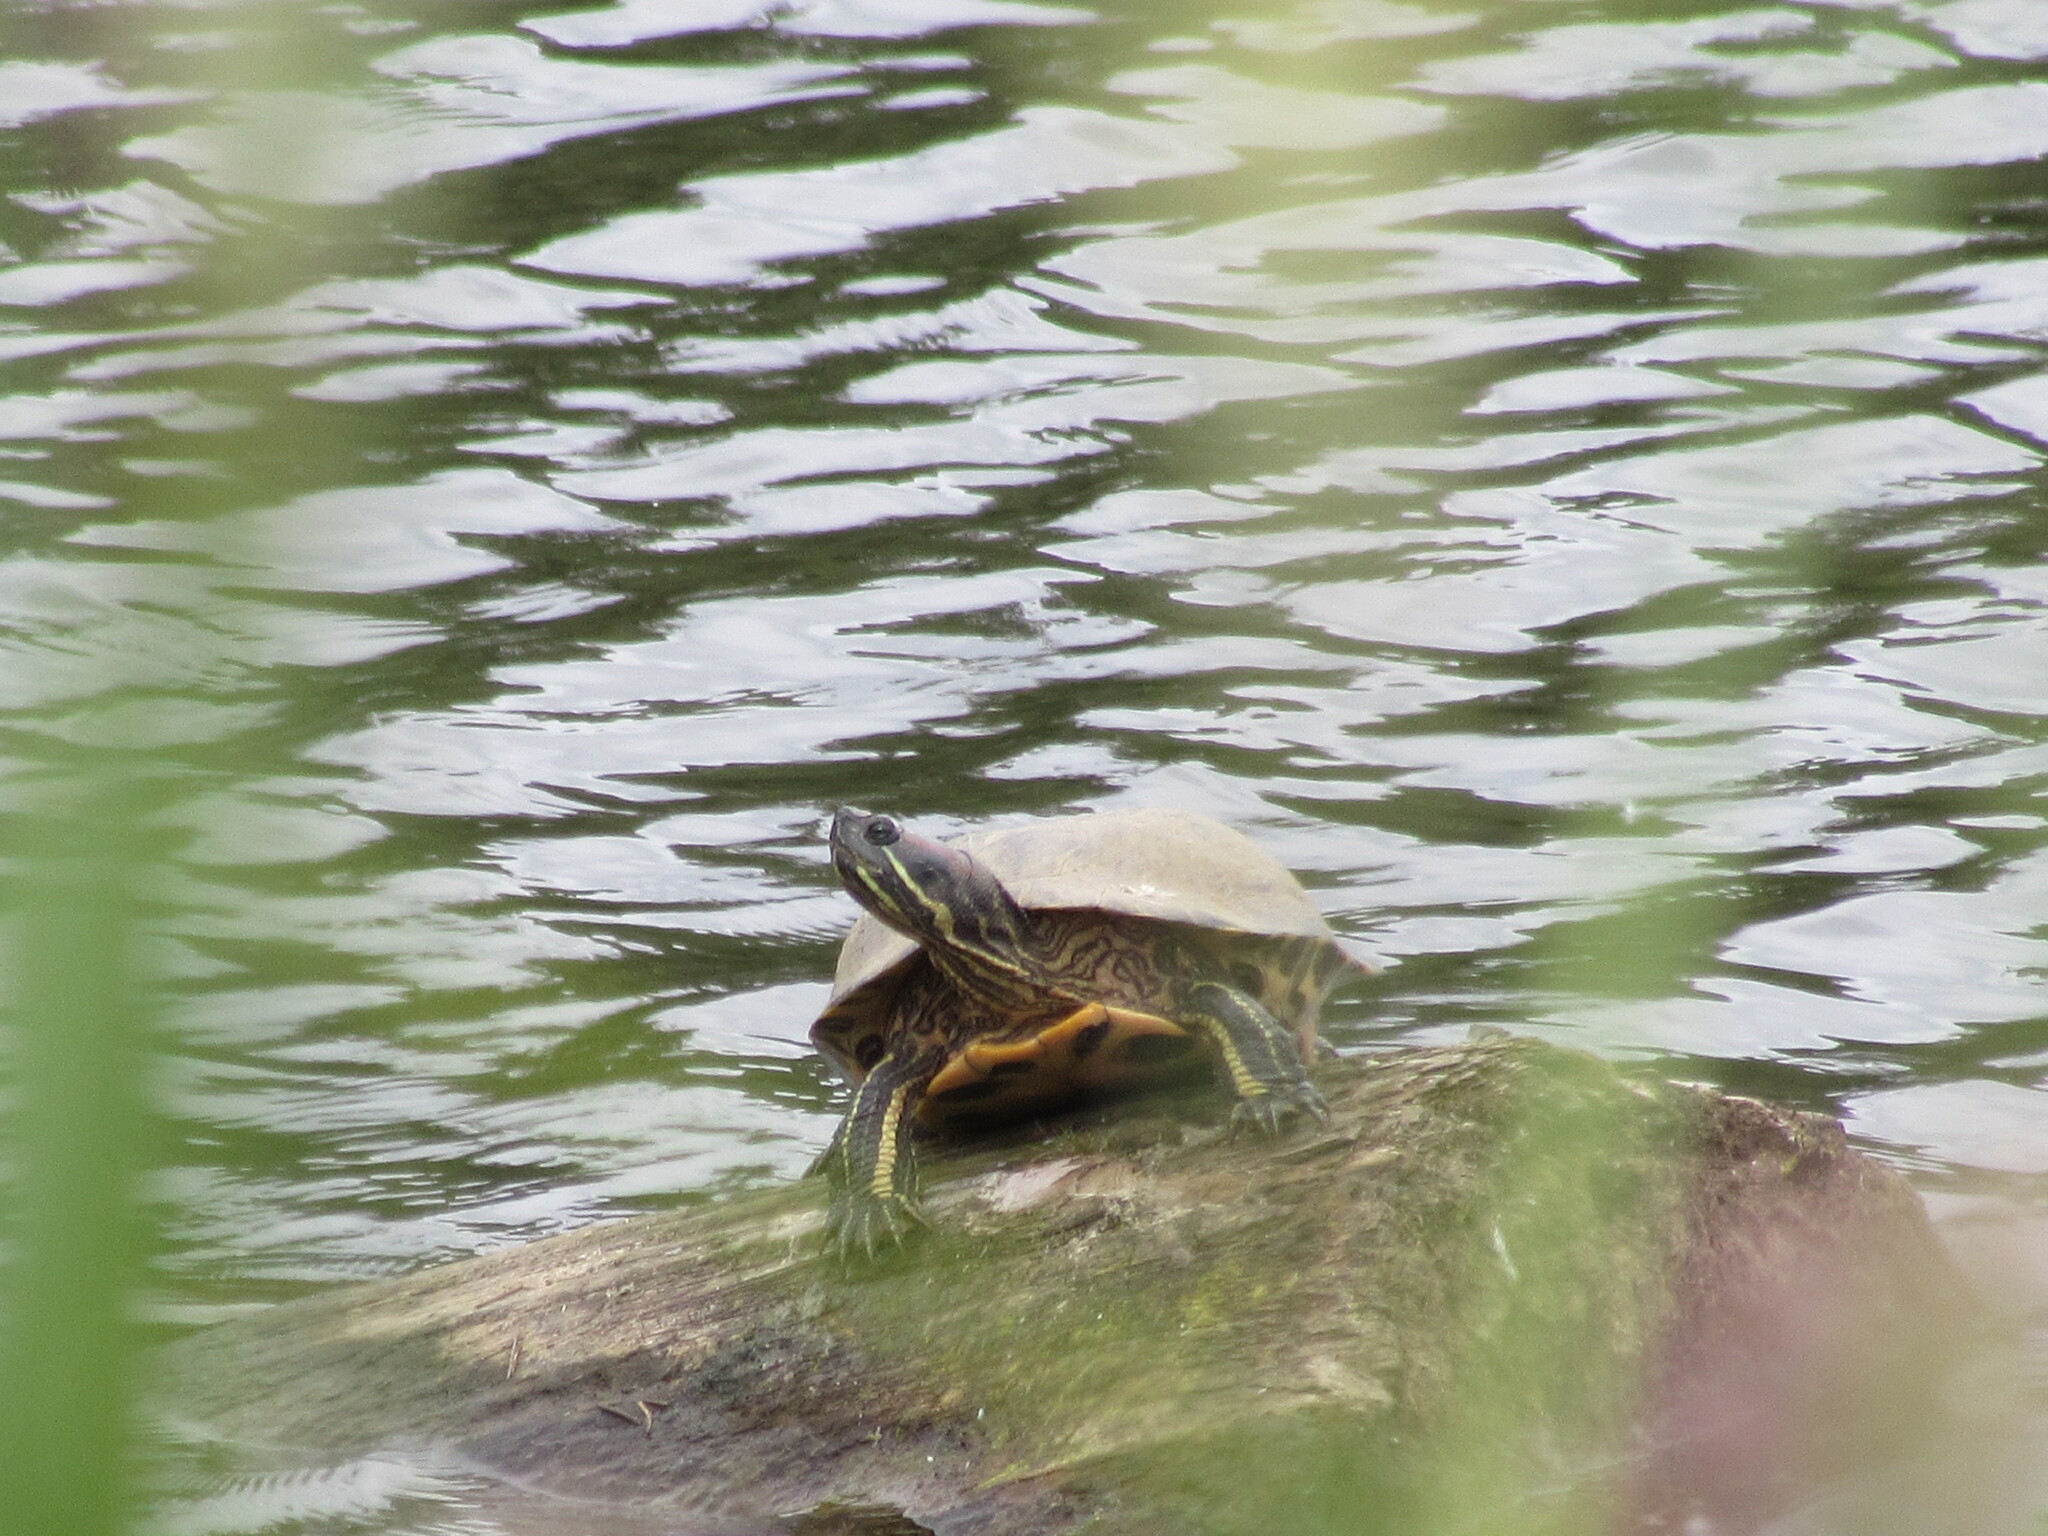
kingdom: Animalia
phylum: Chordata
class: Testudines
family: Emydidae
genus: Trachemys
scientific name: Trachemys scripta
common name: Slider
